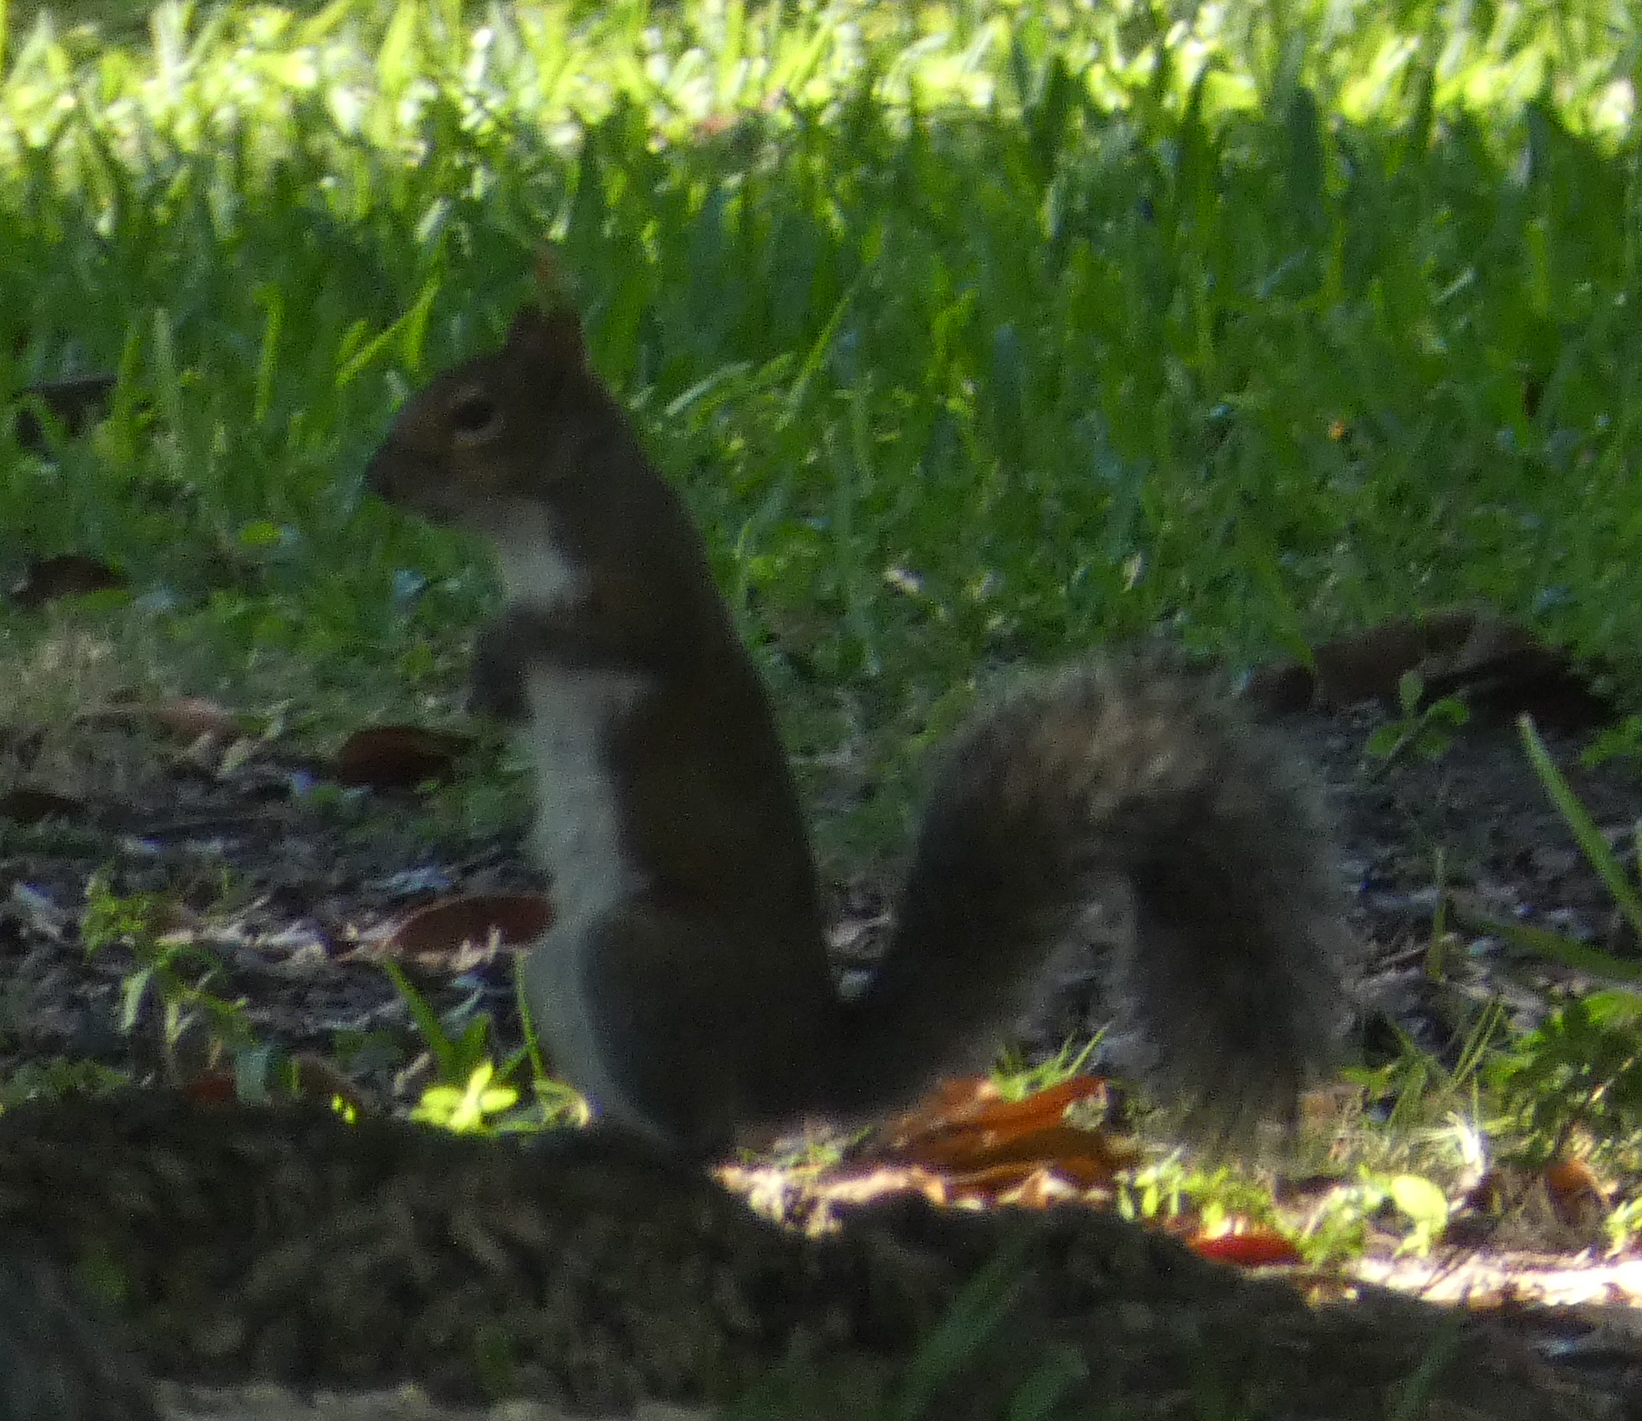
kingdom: Animalia
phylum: Chordata
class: Mammalia
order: Rodentia
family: Sciuridae
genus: Sciurus
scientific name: Sciurus carolinensis
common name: Eastern gray squirrel
